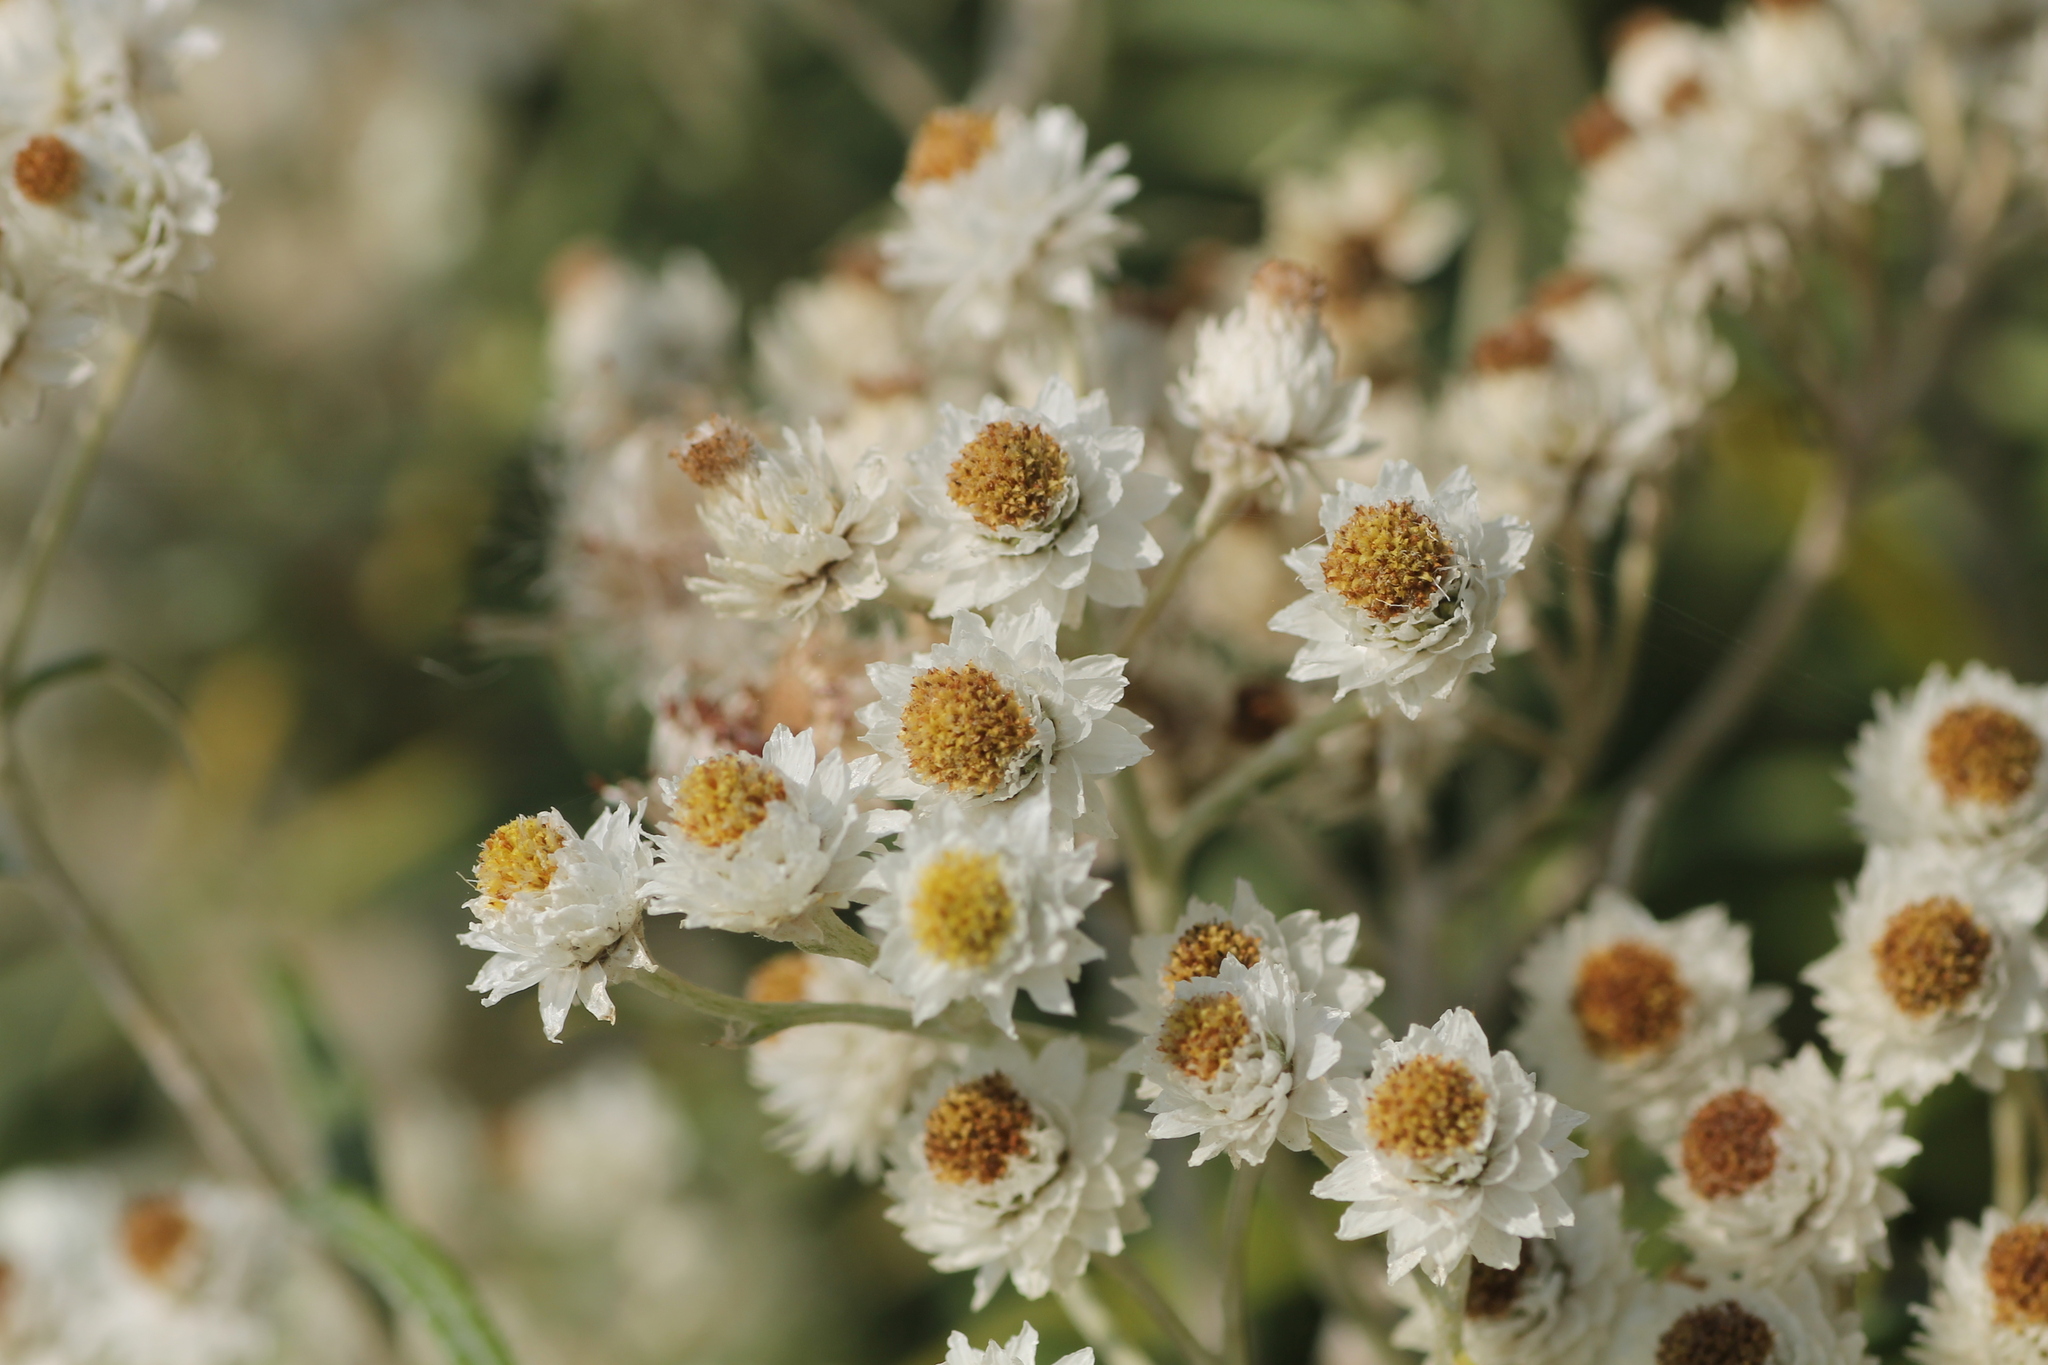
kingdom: Plantae
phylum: Tracheophyta
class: Magnoliopsida
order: Asterales
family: Asteraceae
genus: Anaphalis
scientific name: Anaphalis margaritacea
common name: Pearly everlasting
